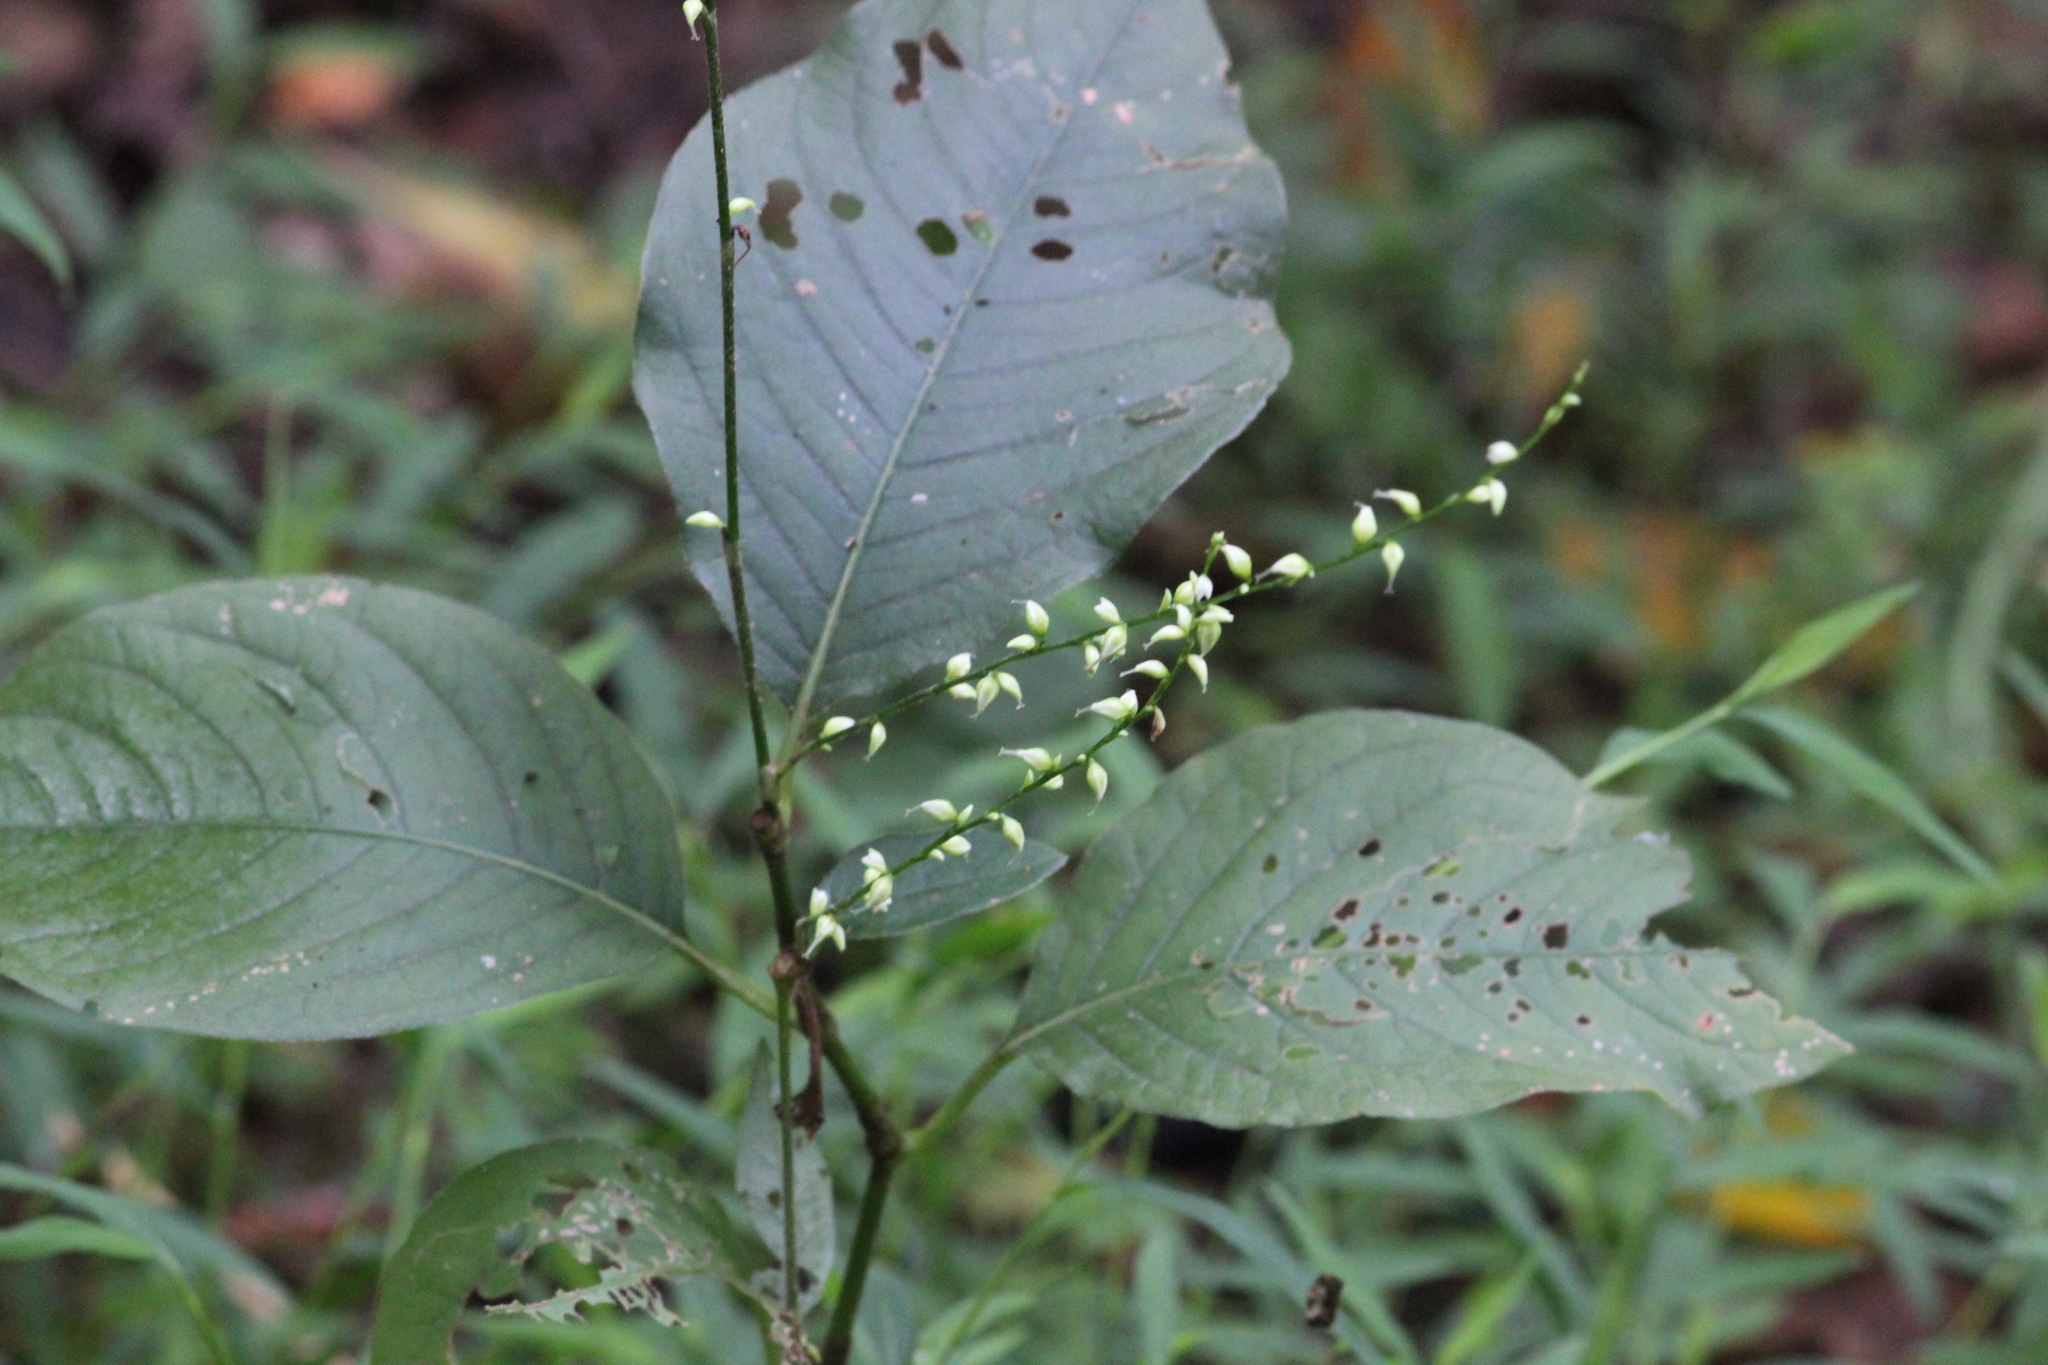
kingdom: Plantae
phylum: Tracheophyta
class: Magnoliopsida
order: Caryophyllales
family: Polygonaceae
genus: Persicaria
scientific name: Persicaria virginiana
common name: Jumpseed
